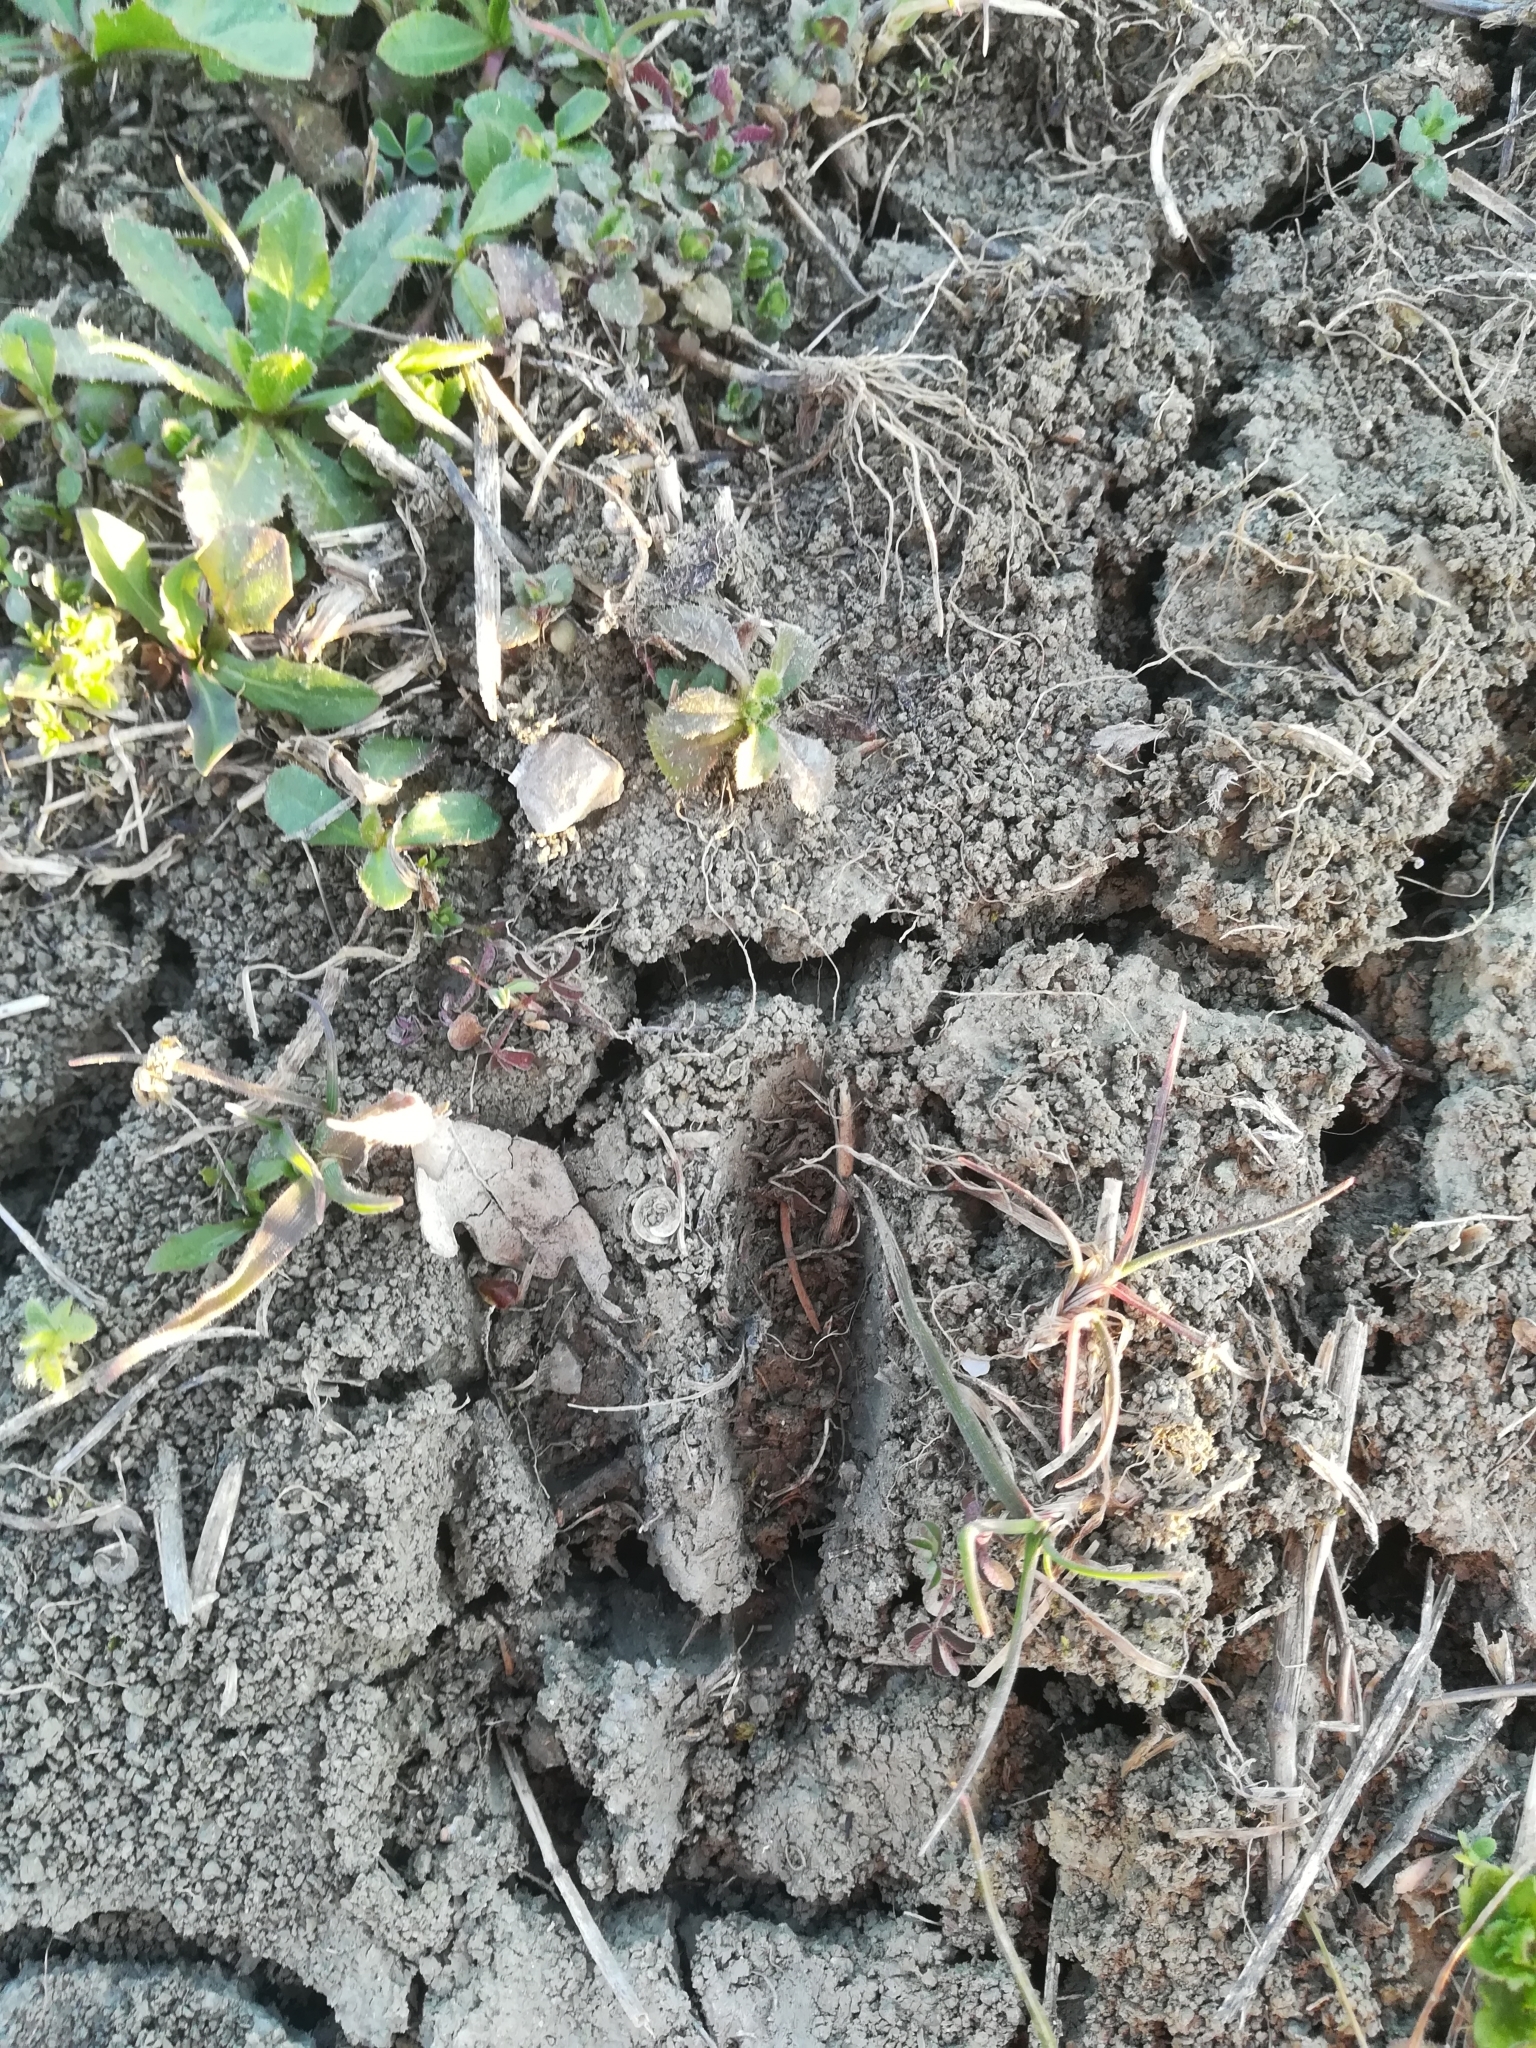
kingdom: Animalia
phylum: Chordata
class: Mammalia
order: Artiodactyla
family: Suidae
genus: Sus
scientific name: Sus scrofa
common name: Wild boar
